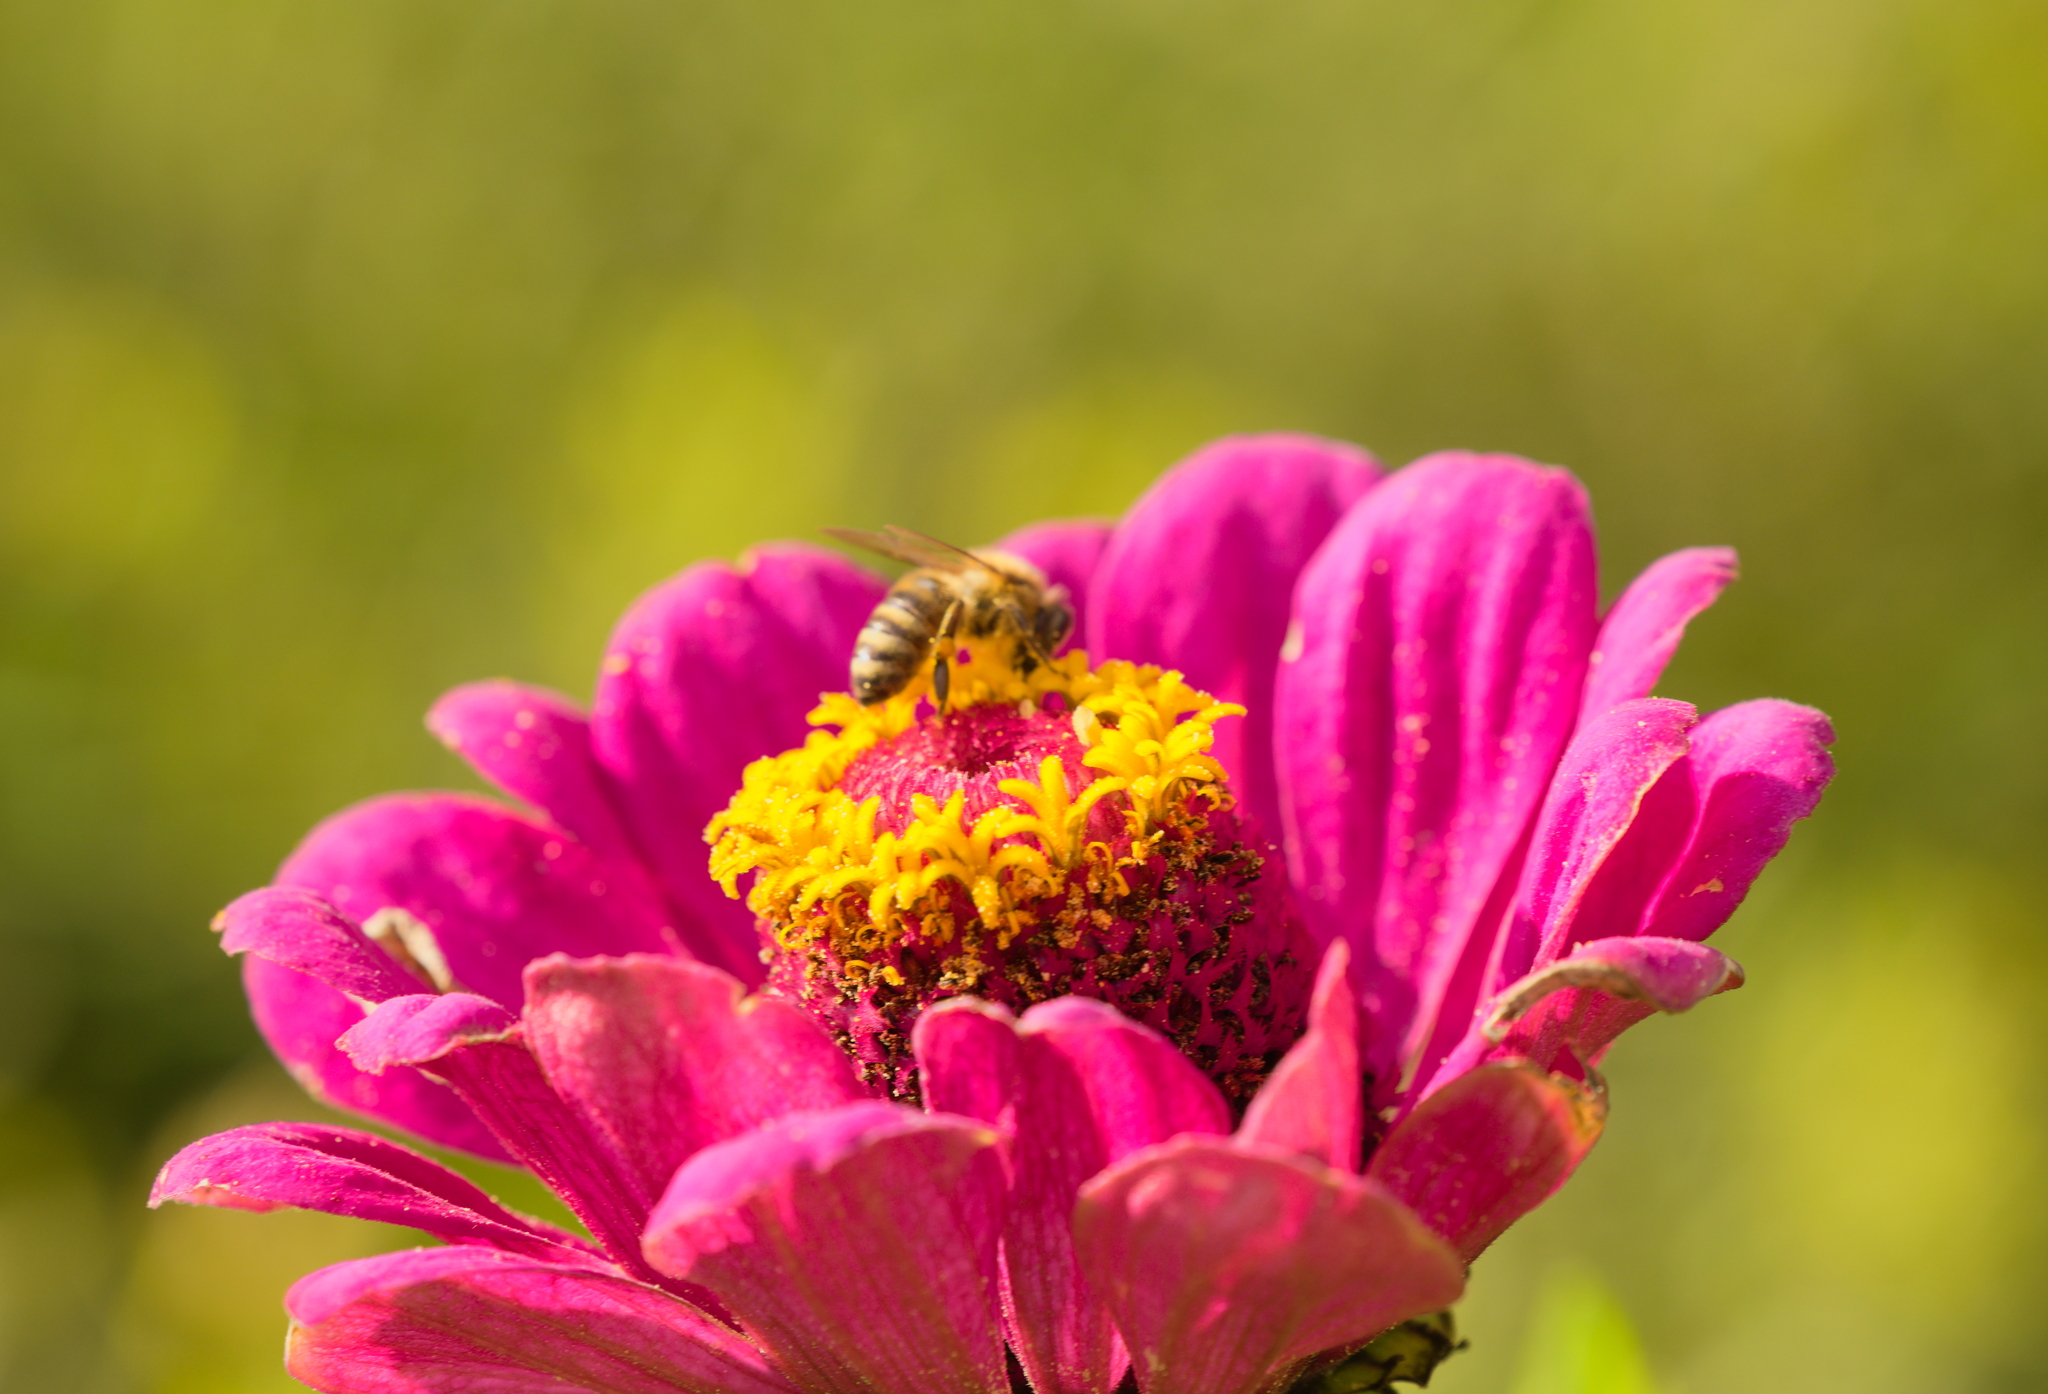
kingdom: Animalia
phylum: Arthropoda
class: Insecta
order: Hymenoptera
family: Apidae
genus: Apis
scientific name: Apis mellifera
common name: Honey bee
